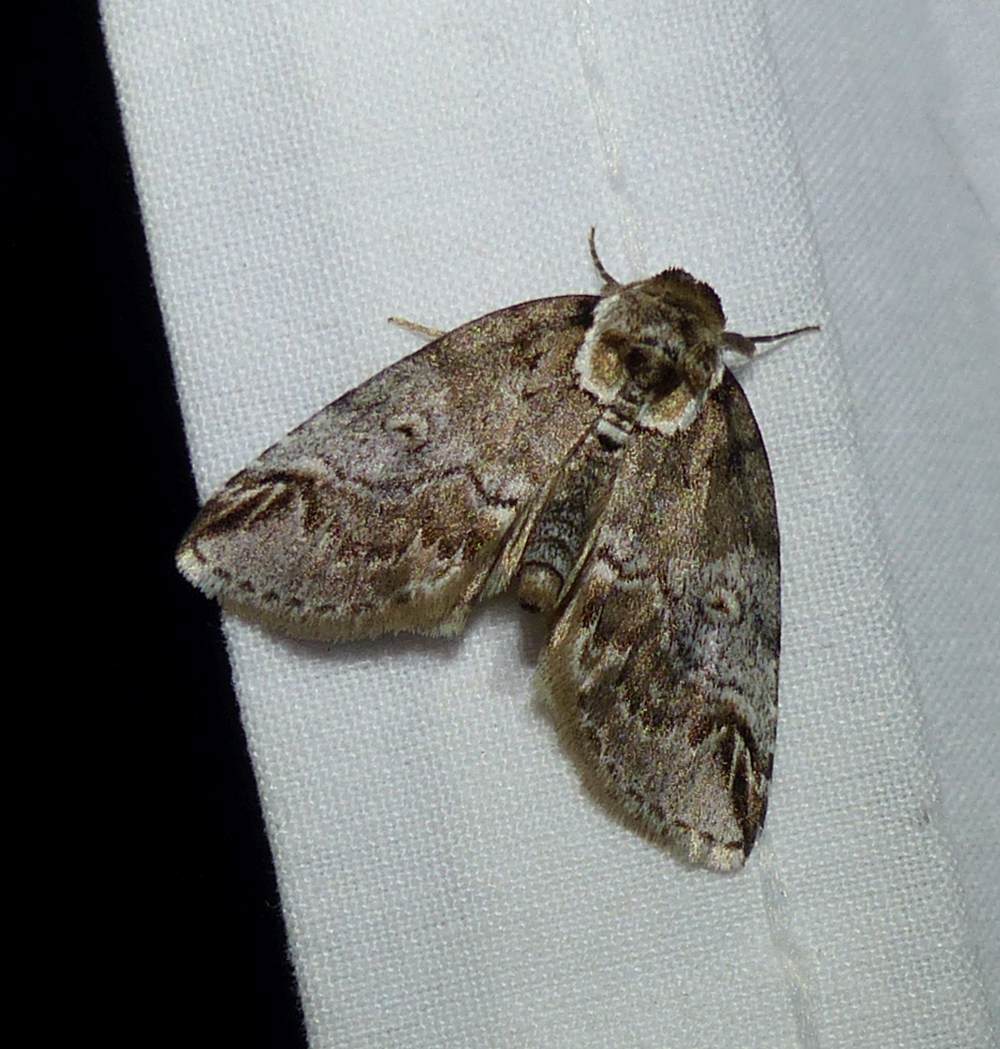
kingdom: Animalia
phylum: Arthropoda
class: Insecta
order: Lepidoptera
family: Nolidae
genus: Baileya
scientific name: Baileya ophthalmica
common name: Eyed baileya moth
